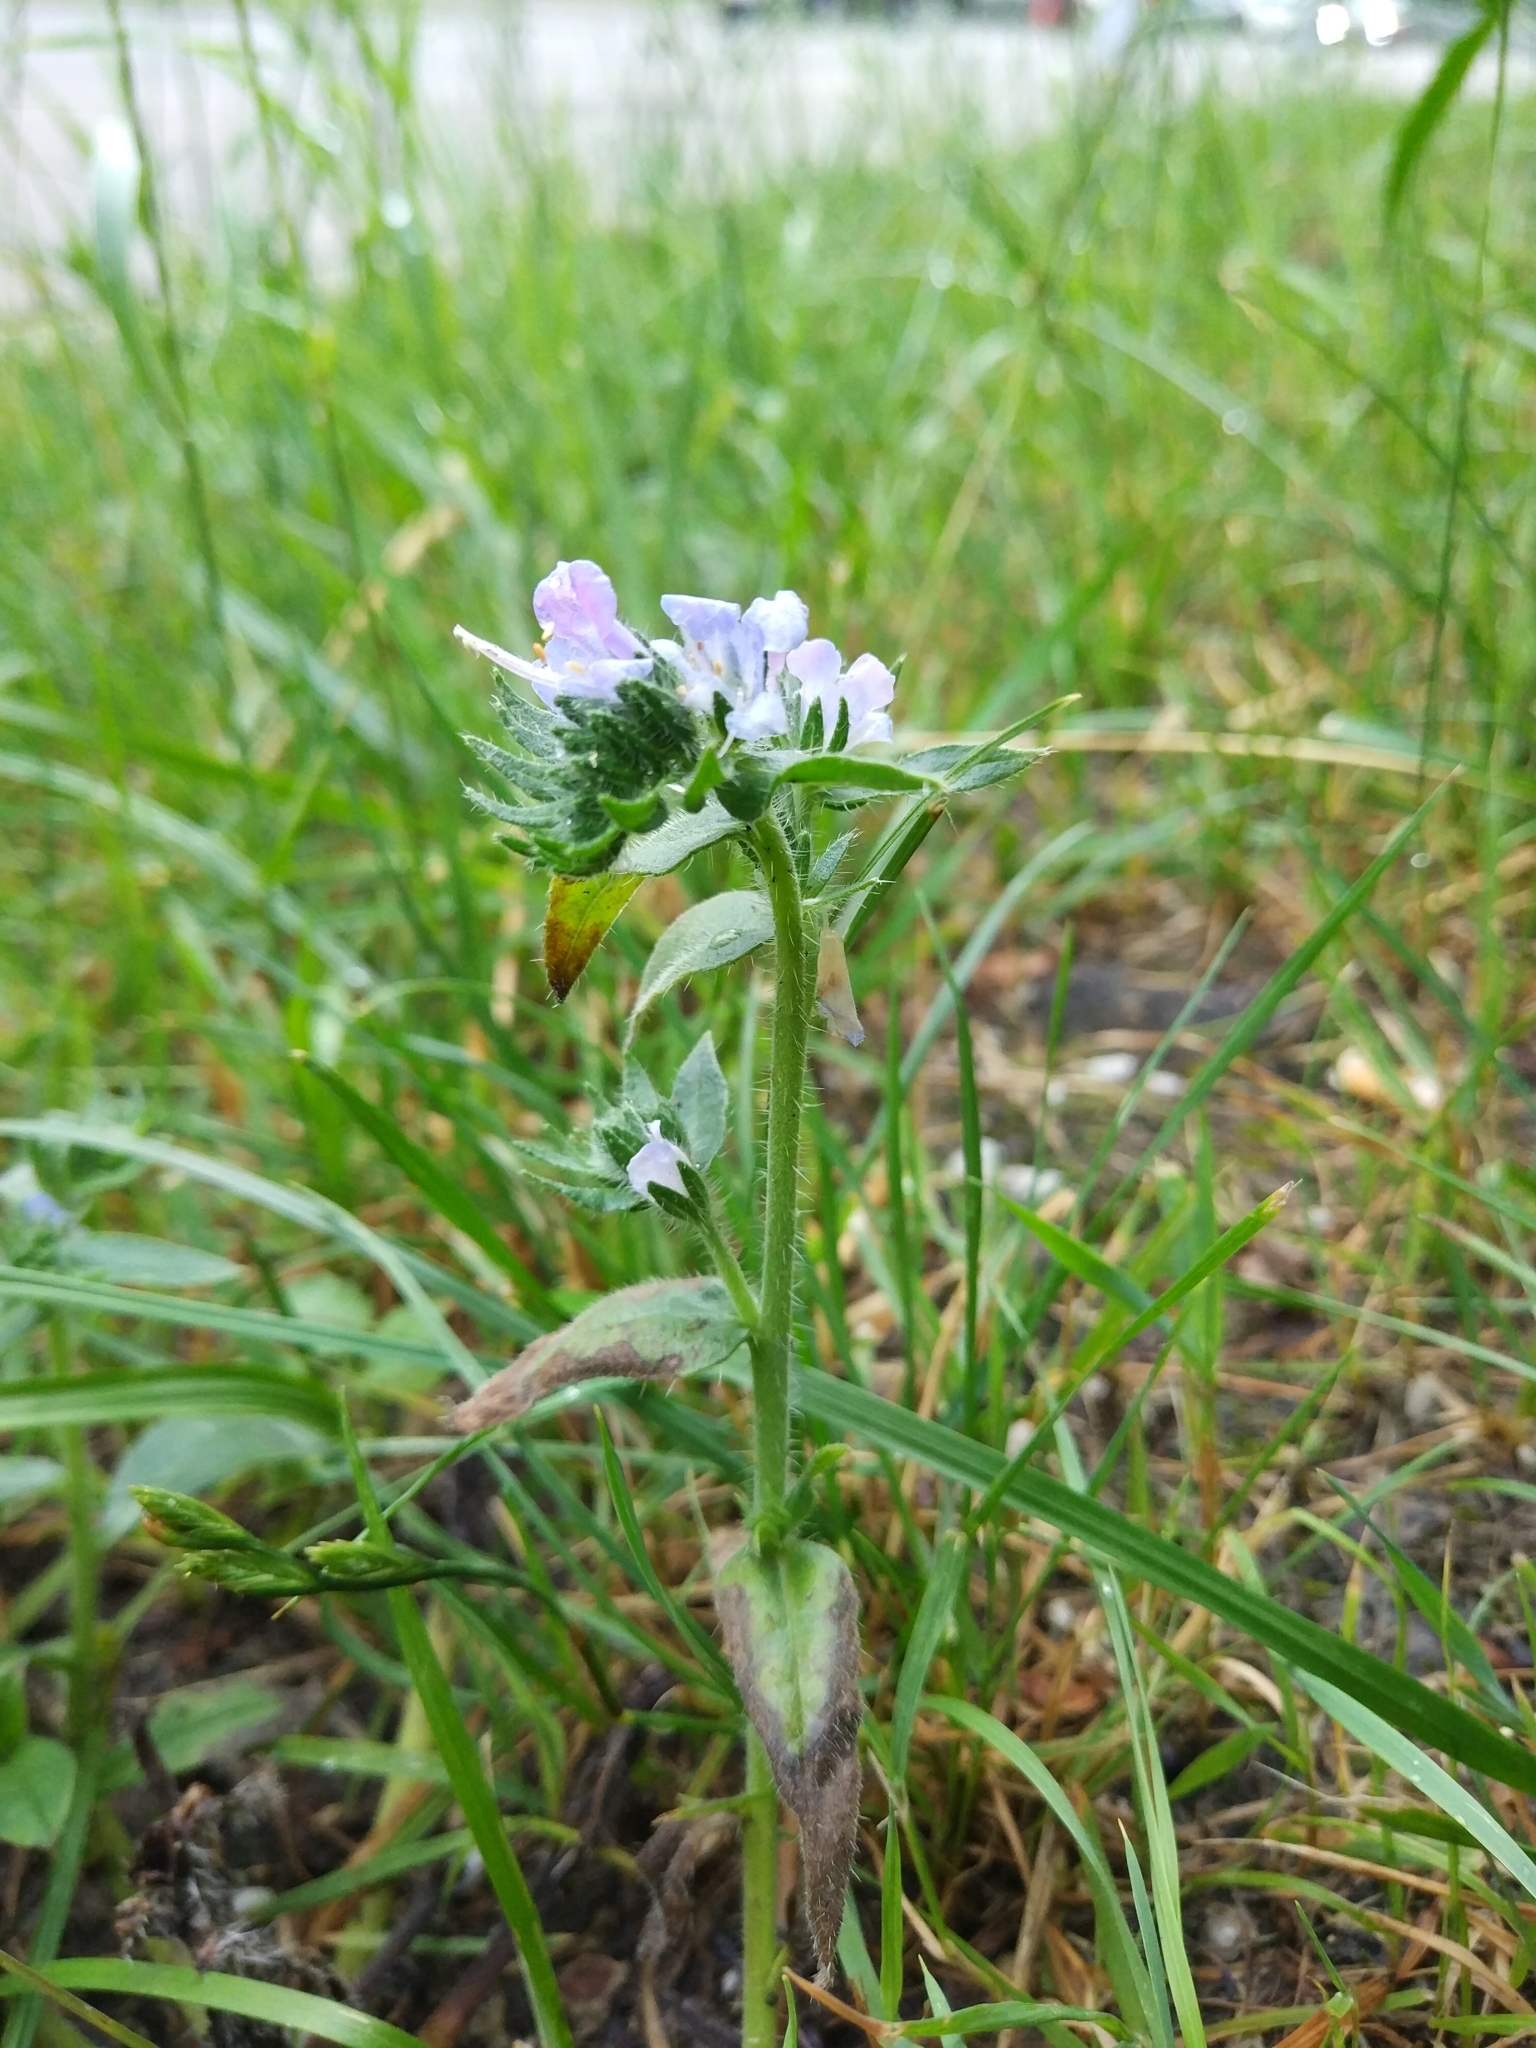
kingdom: Plantae
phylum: Tracheophyta
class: Magnoliopsida
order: Boraginales
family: Boraginaceae
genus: Echium
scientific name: Echium vulgare
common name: Common viper's bugloss
